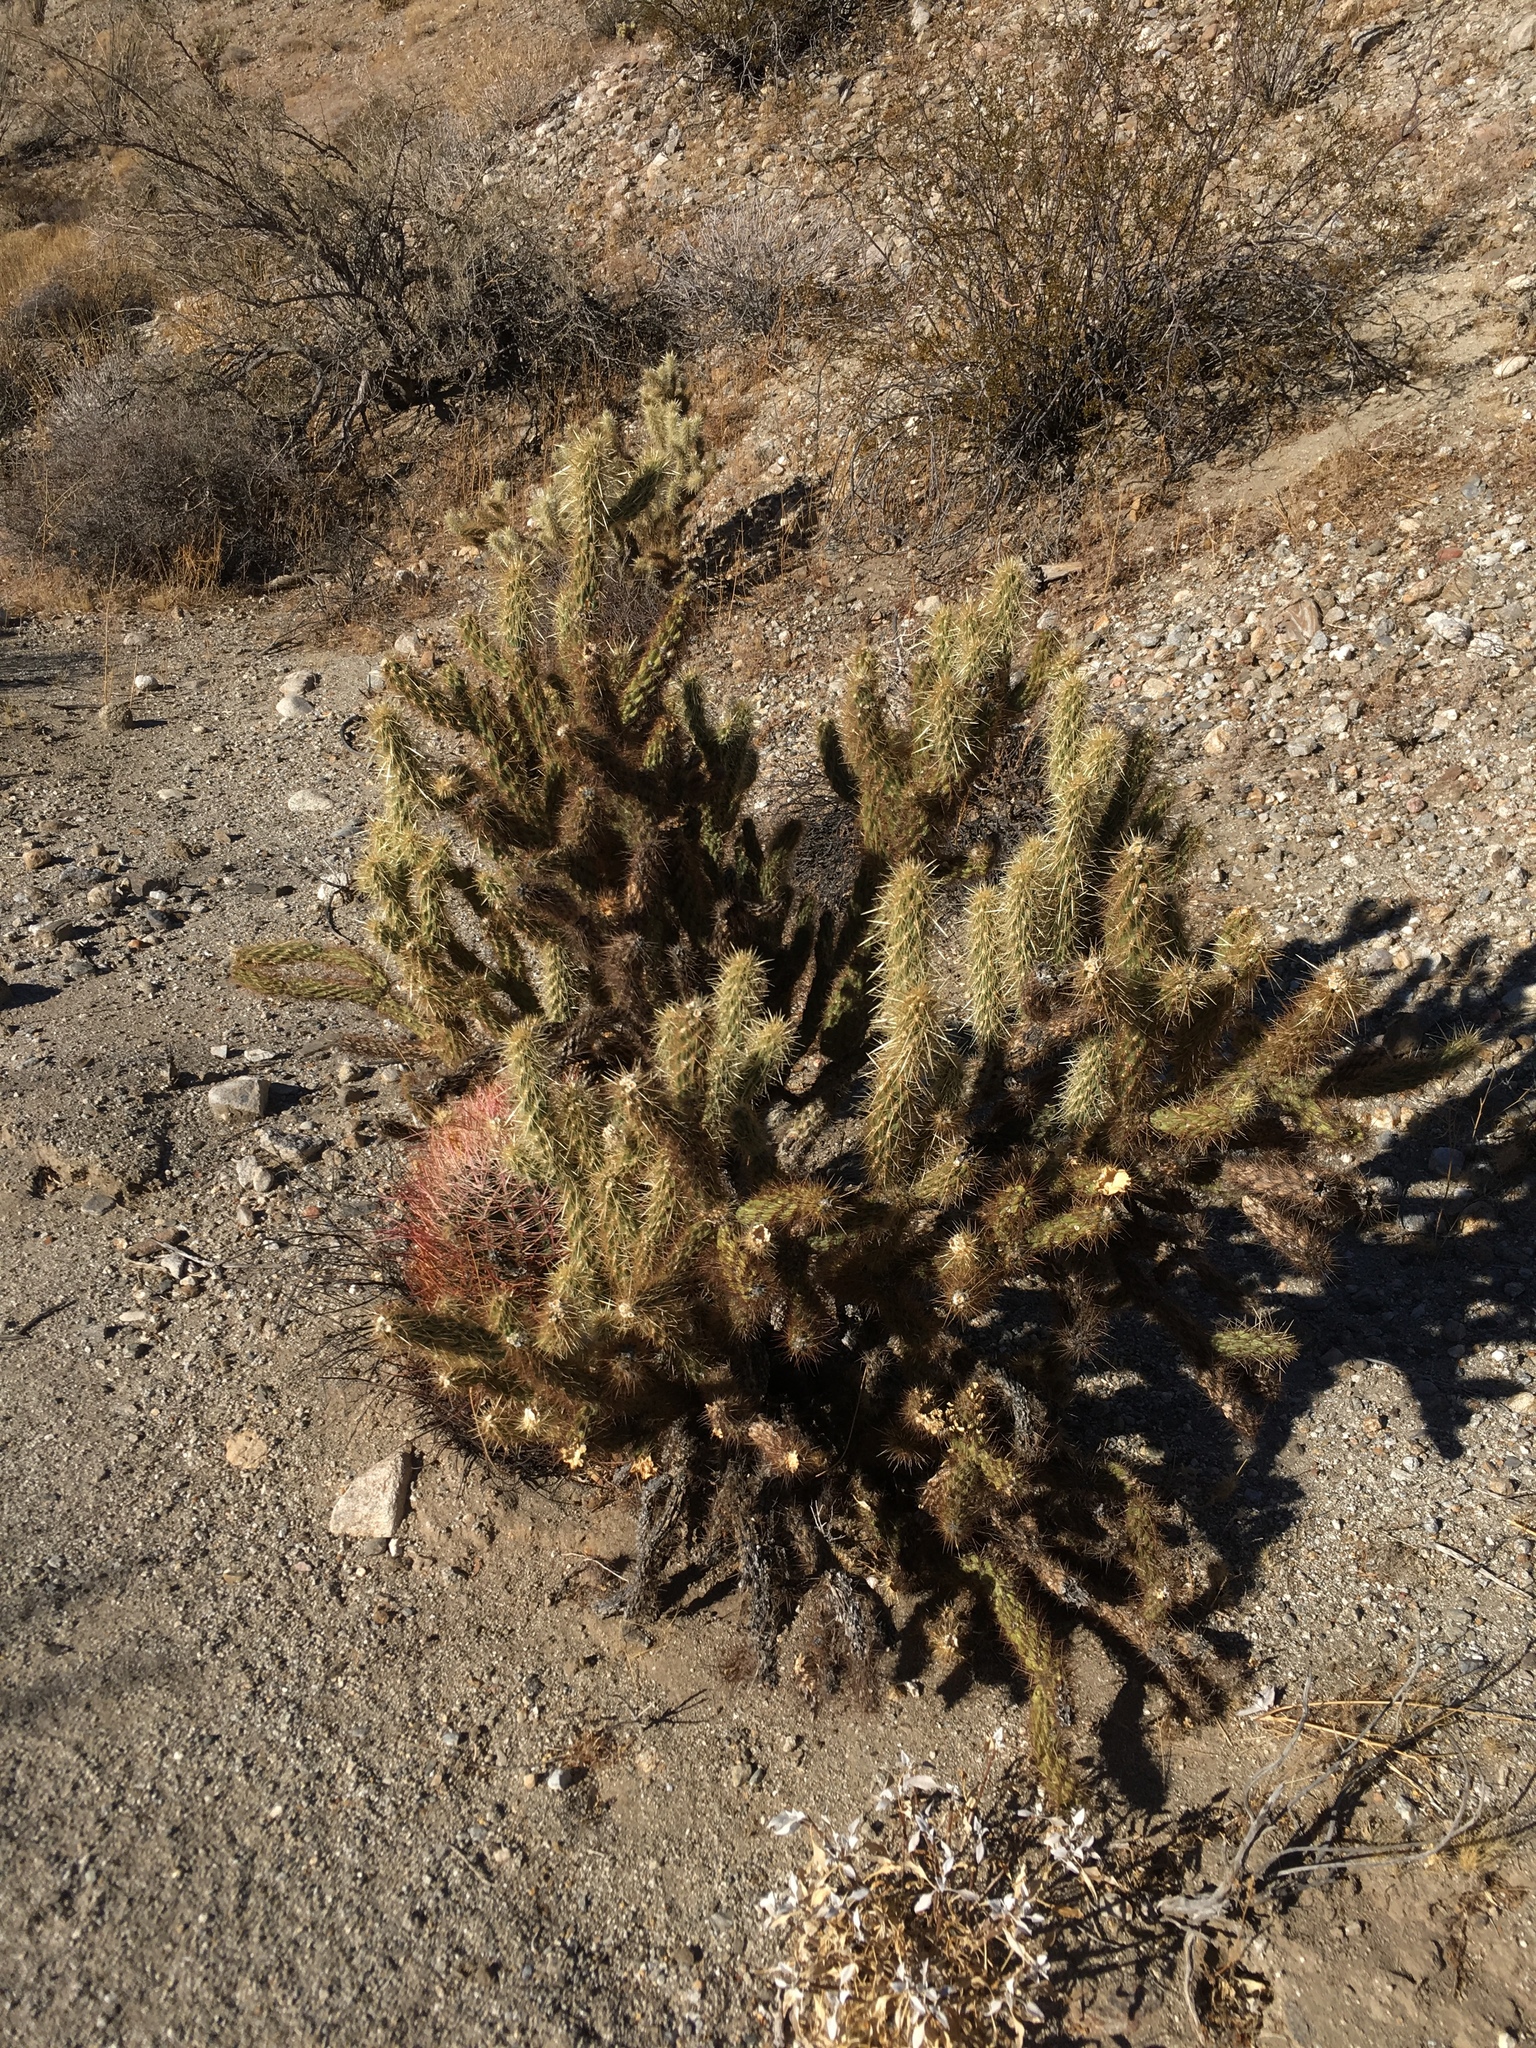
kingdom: Plantae
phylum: Tracheophyta
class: Magnoliopsida
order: Caryophyllales
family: Cactaceae
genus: Cylindropuntia
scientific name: Cylindropuntia ganderi
